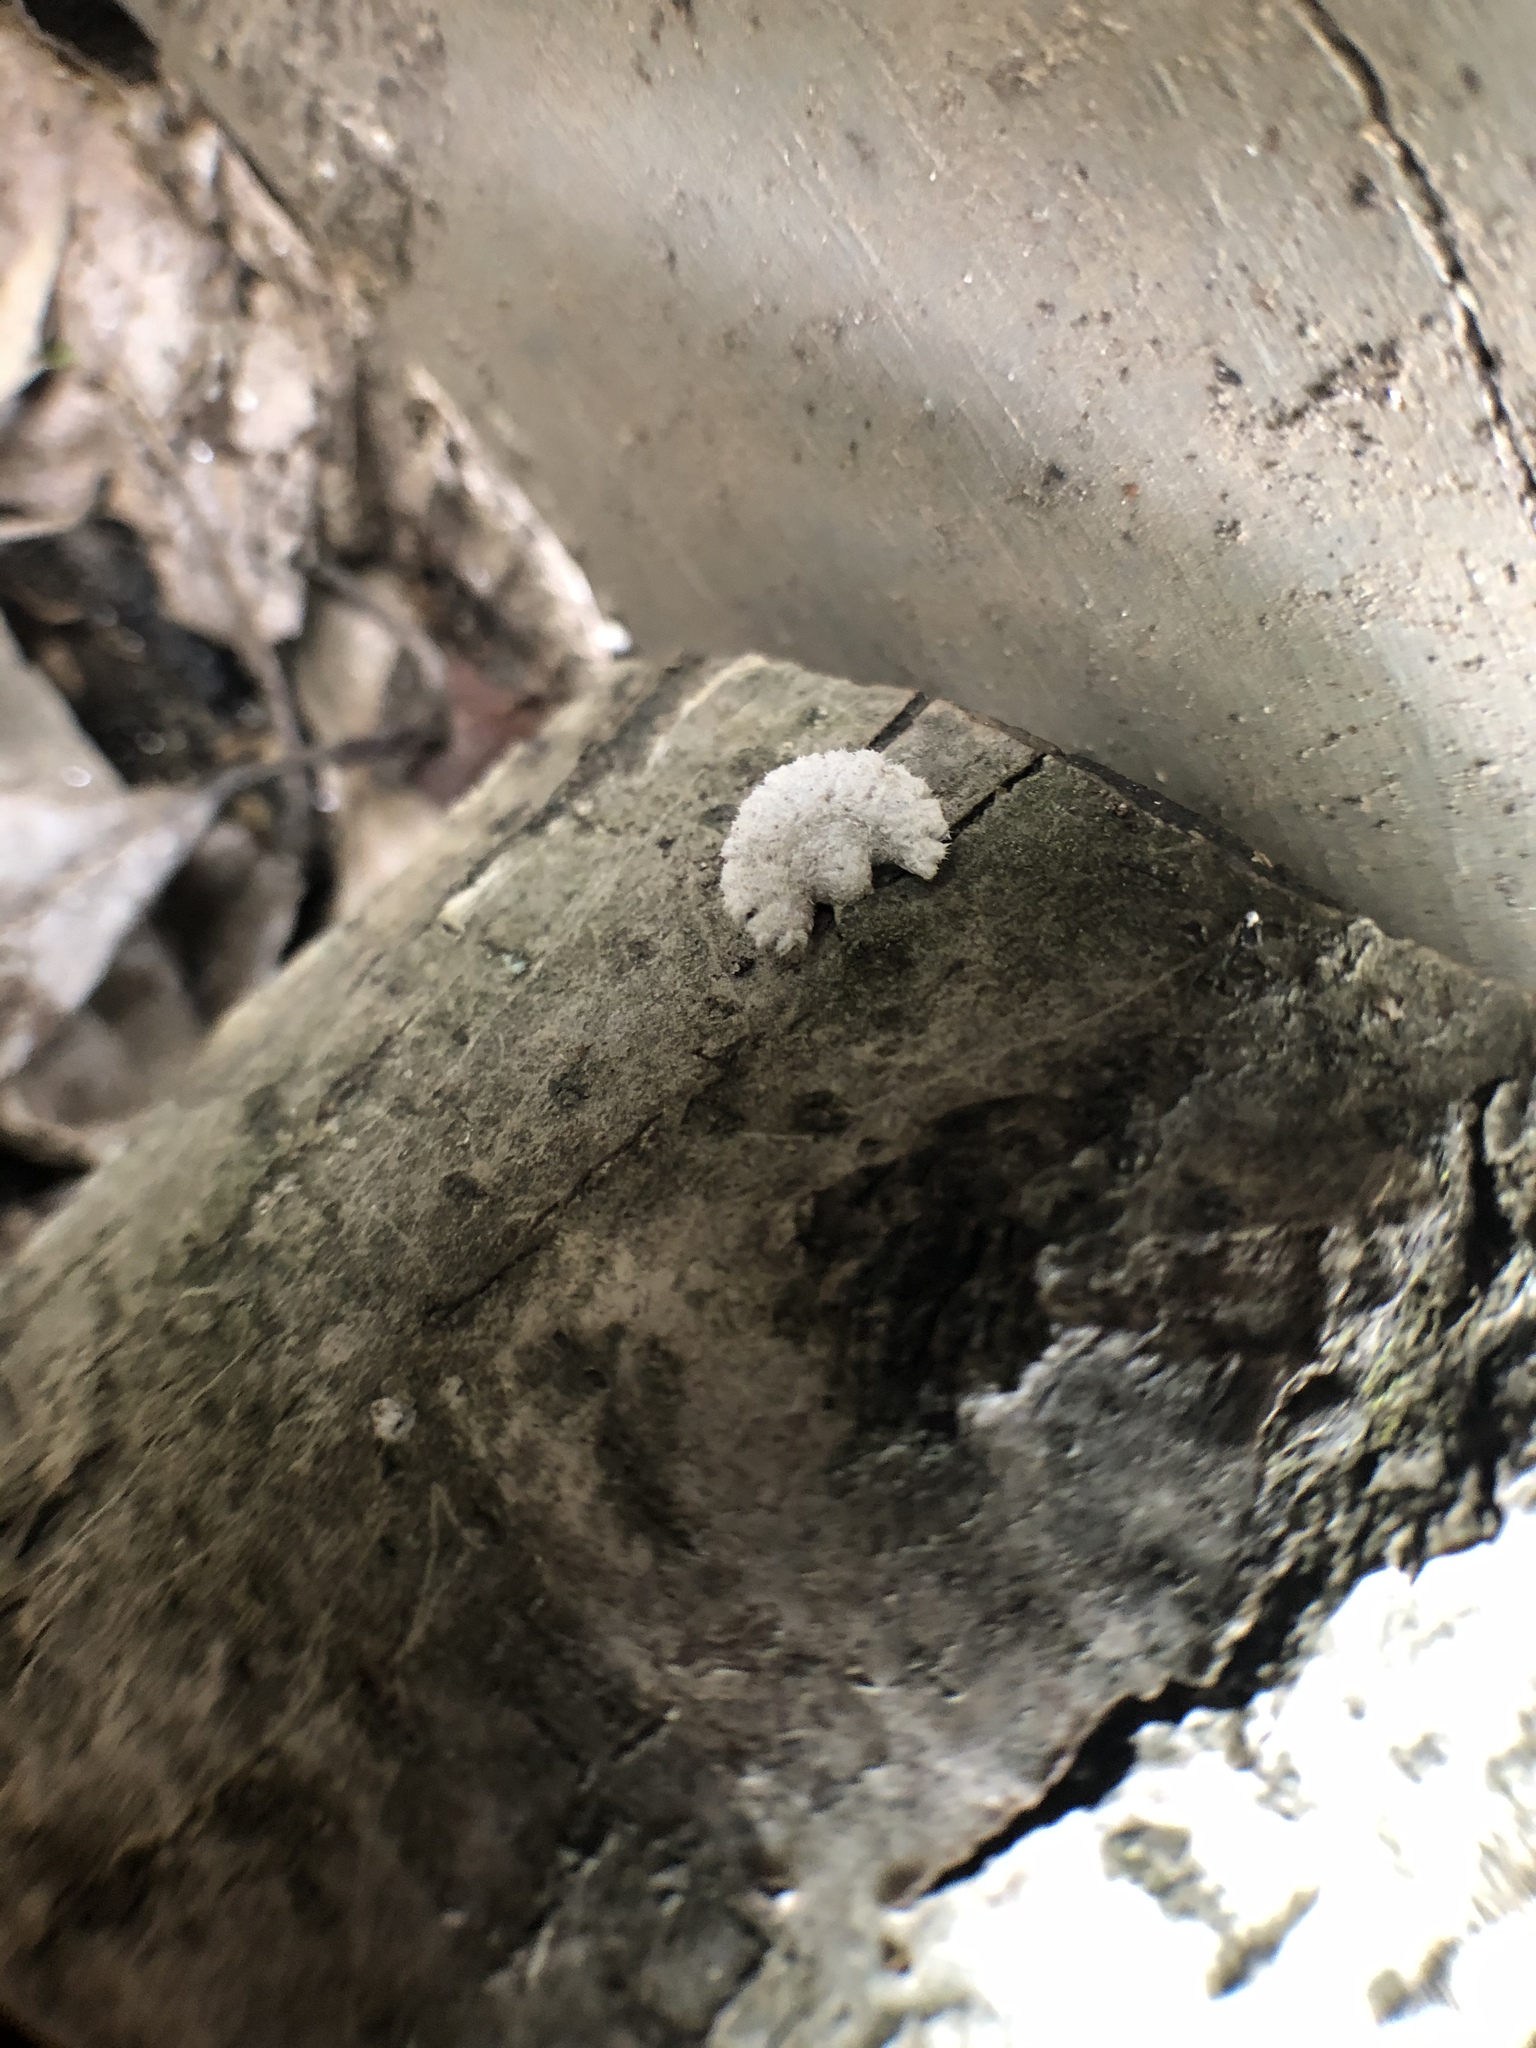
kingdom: Fungi
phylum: Basidiomycota
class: Agaricomycetes
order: Agaricales
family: Schizophyllaceae
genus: Schizophyllum
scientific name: Schizophyllum commune
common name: Common porecrust
